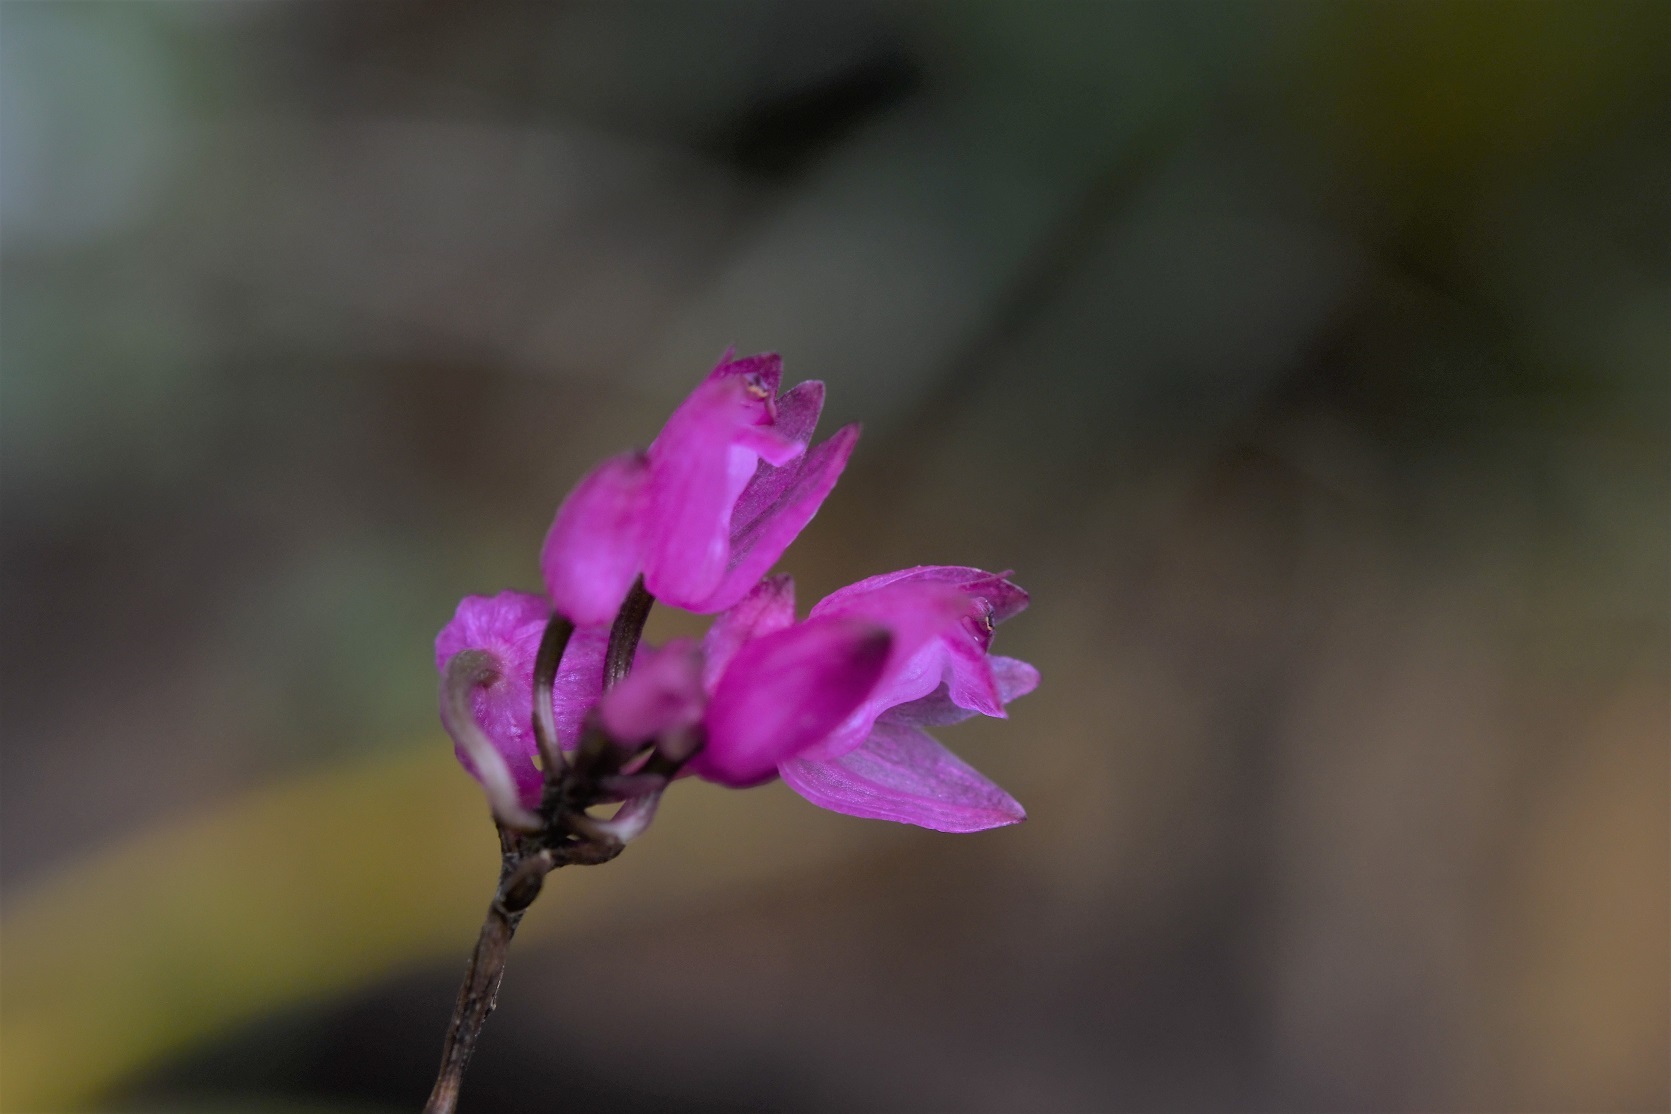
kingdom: Plantae
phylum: Tracheophyta
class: Liliopsida
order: Asparagales
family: Orchidaceae
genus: Domingoa
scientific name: Domingoa purpurea
